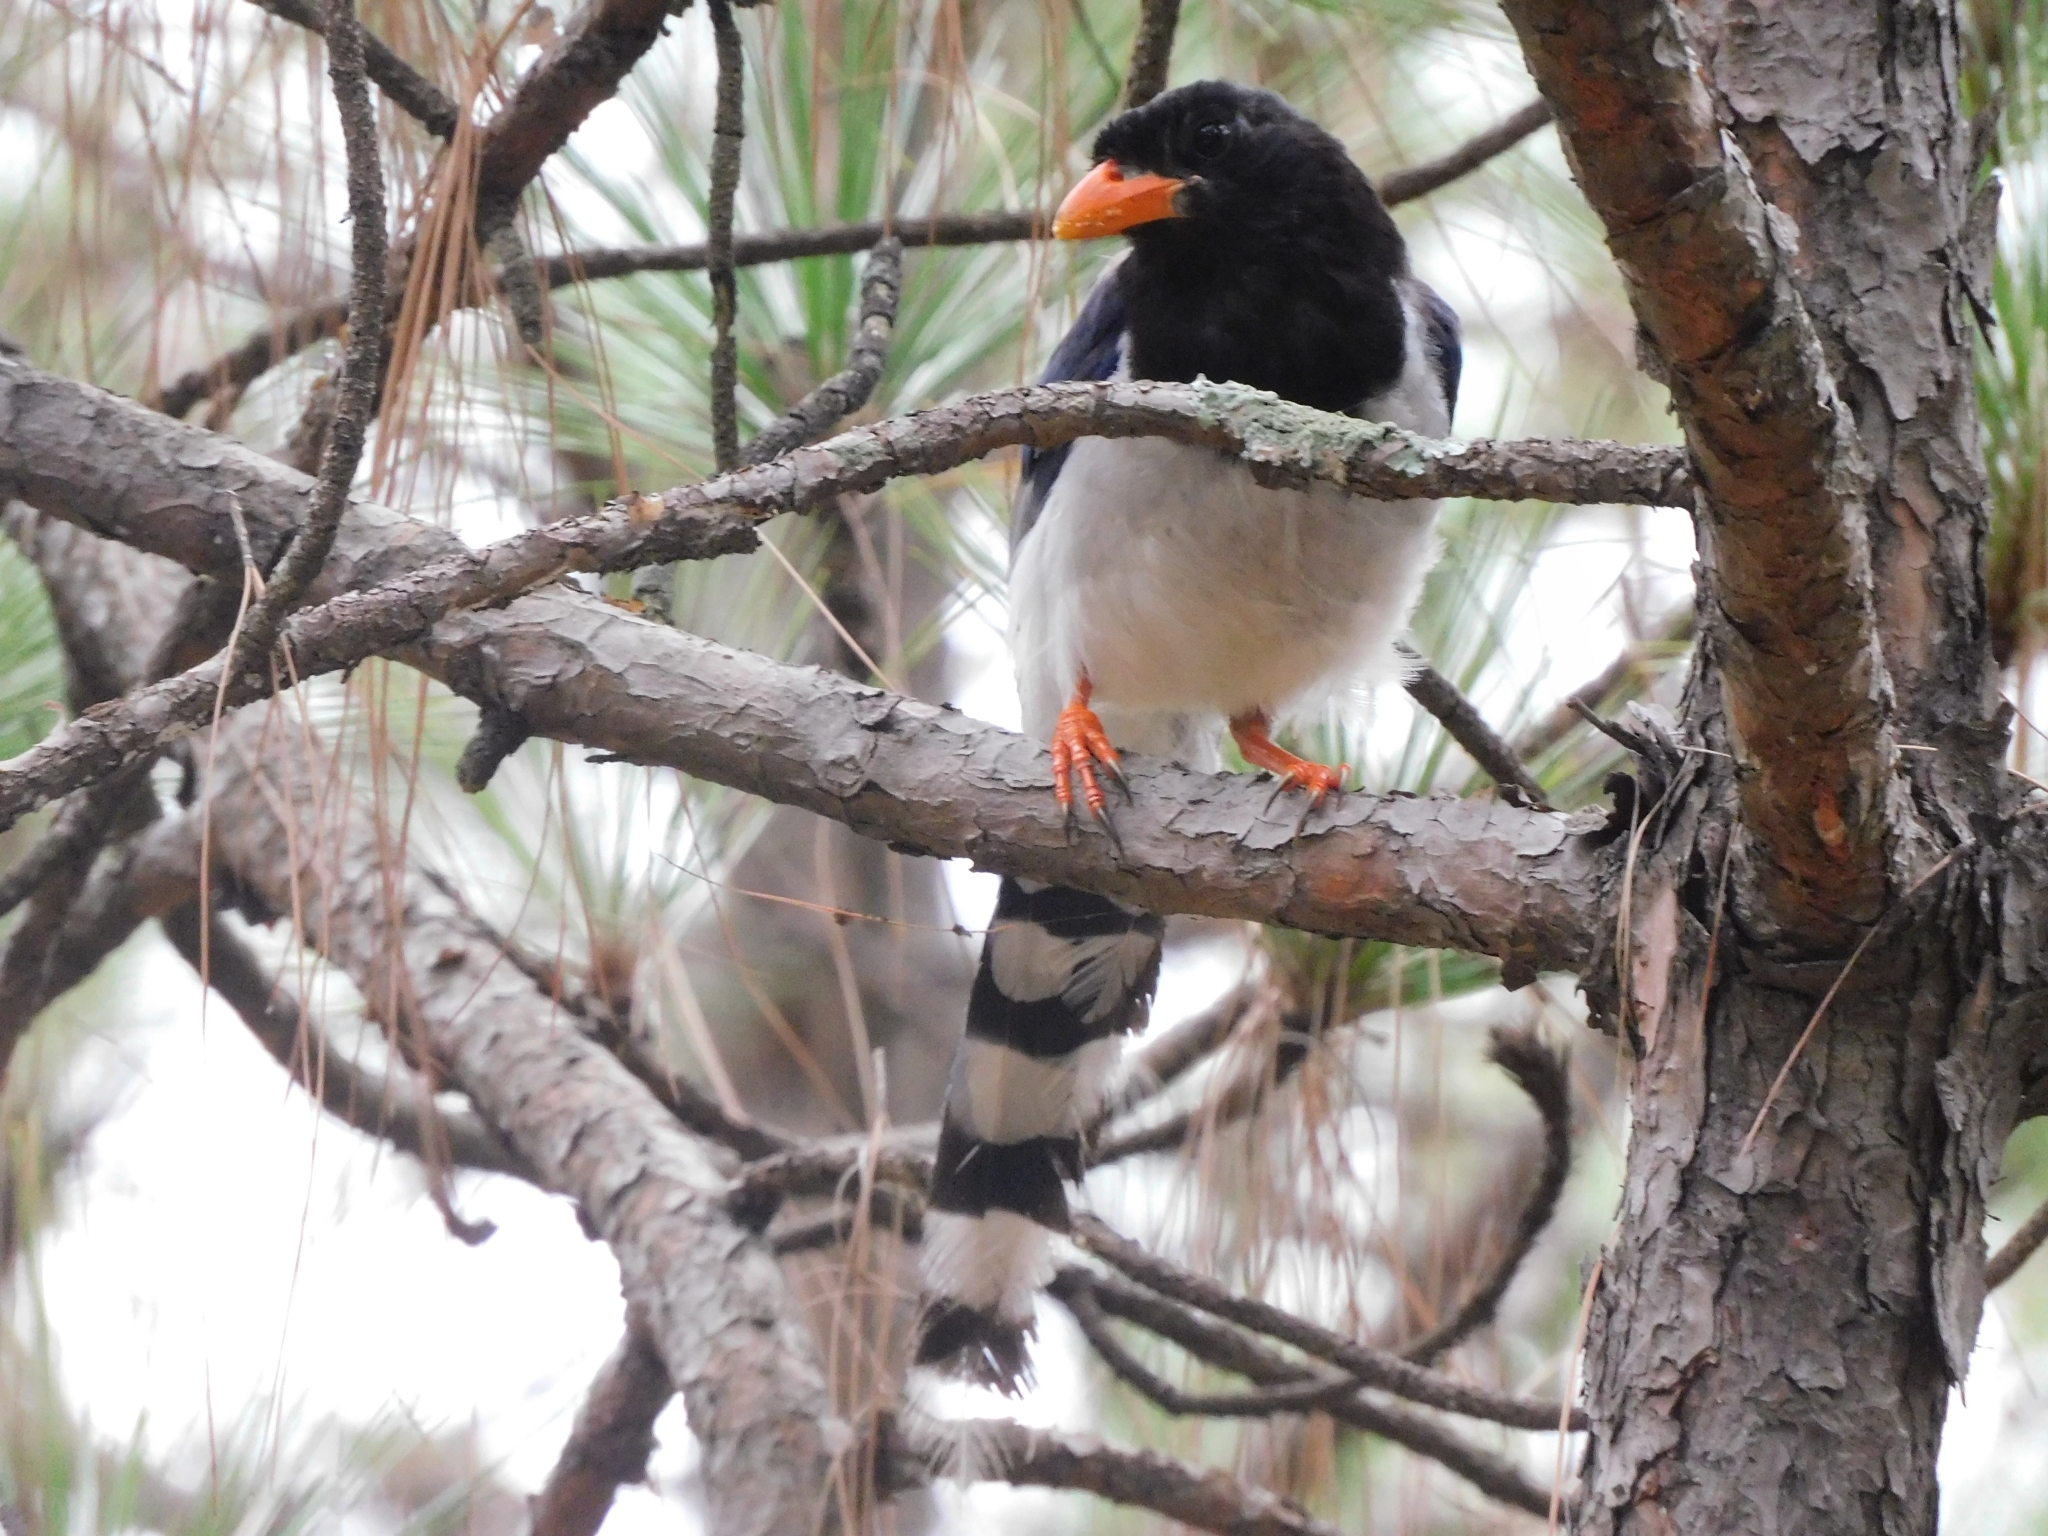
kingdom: Animalia
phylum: Chordata
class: Aves
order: Passeriformes
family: Corvidae
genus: Urocissa
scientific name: Urocissa erythroryncha
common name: Red-billed blue magpie
